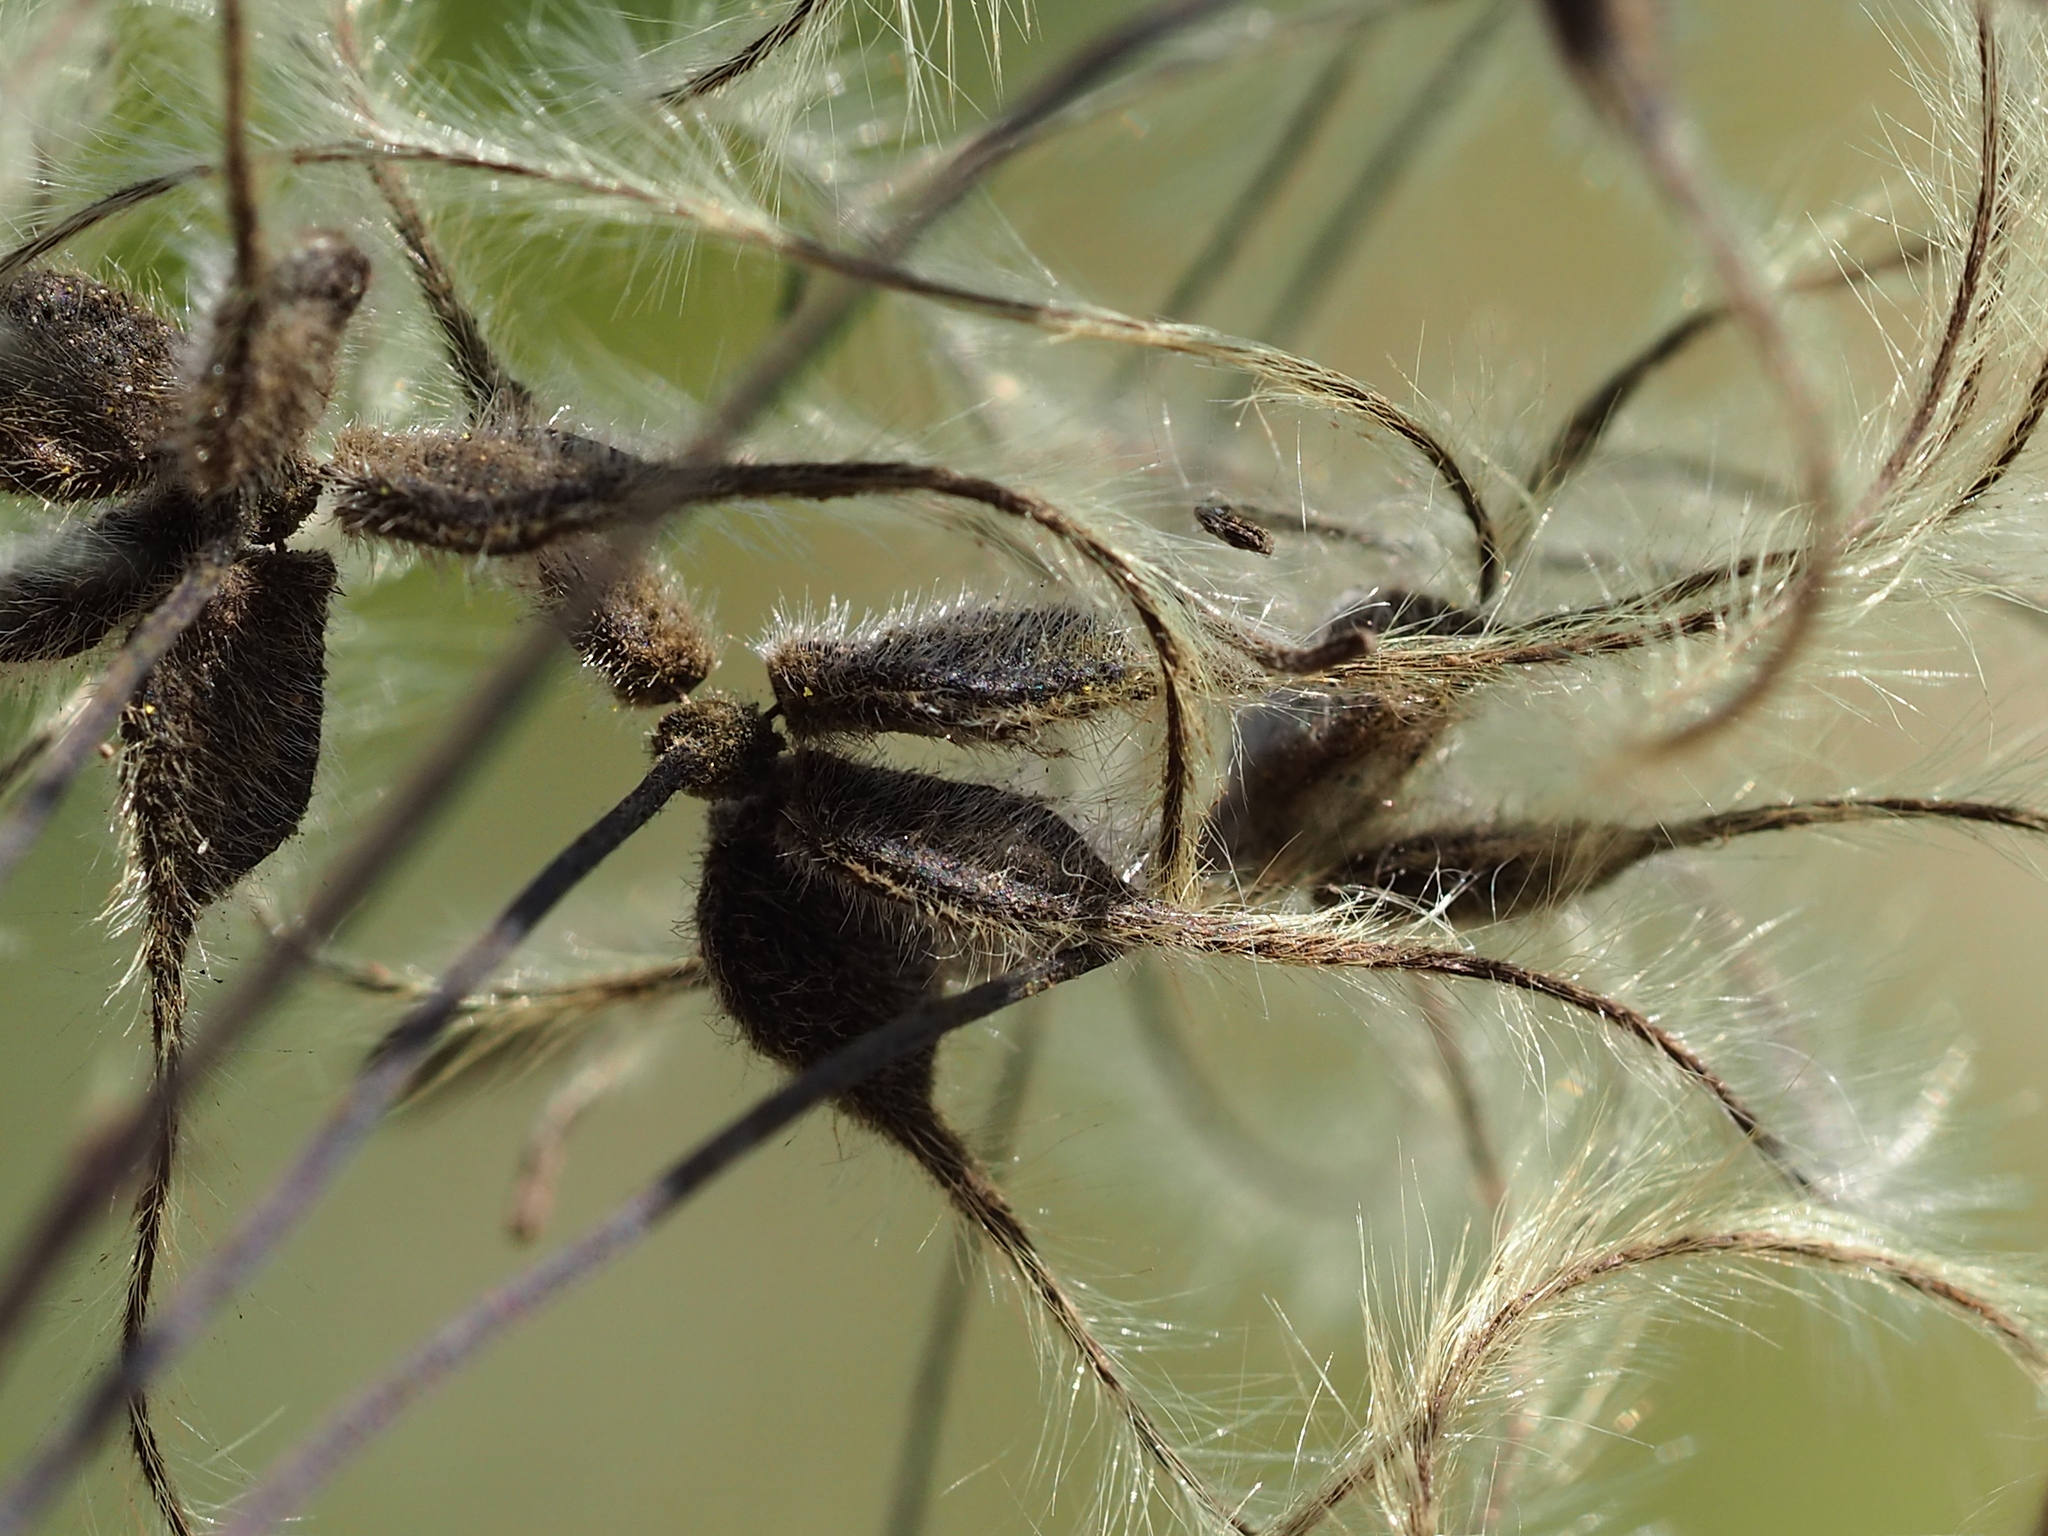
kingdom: Plantae
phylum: Tracheophyta
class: Magnoliopsida
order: Ranunculales
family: Ranunculaceae
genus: Clematis
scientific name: Clematis chinensis
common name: Chinese clematis
